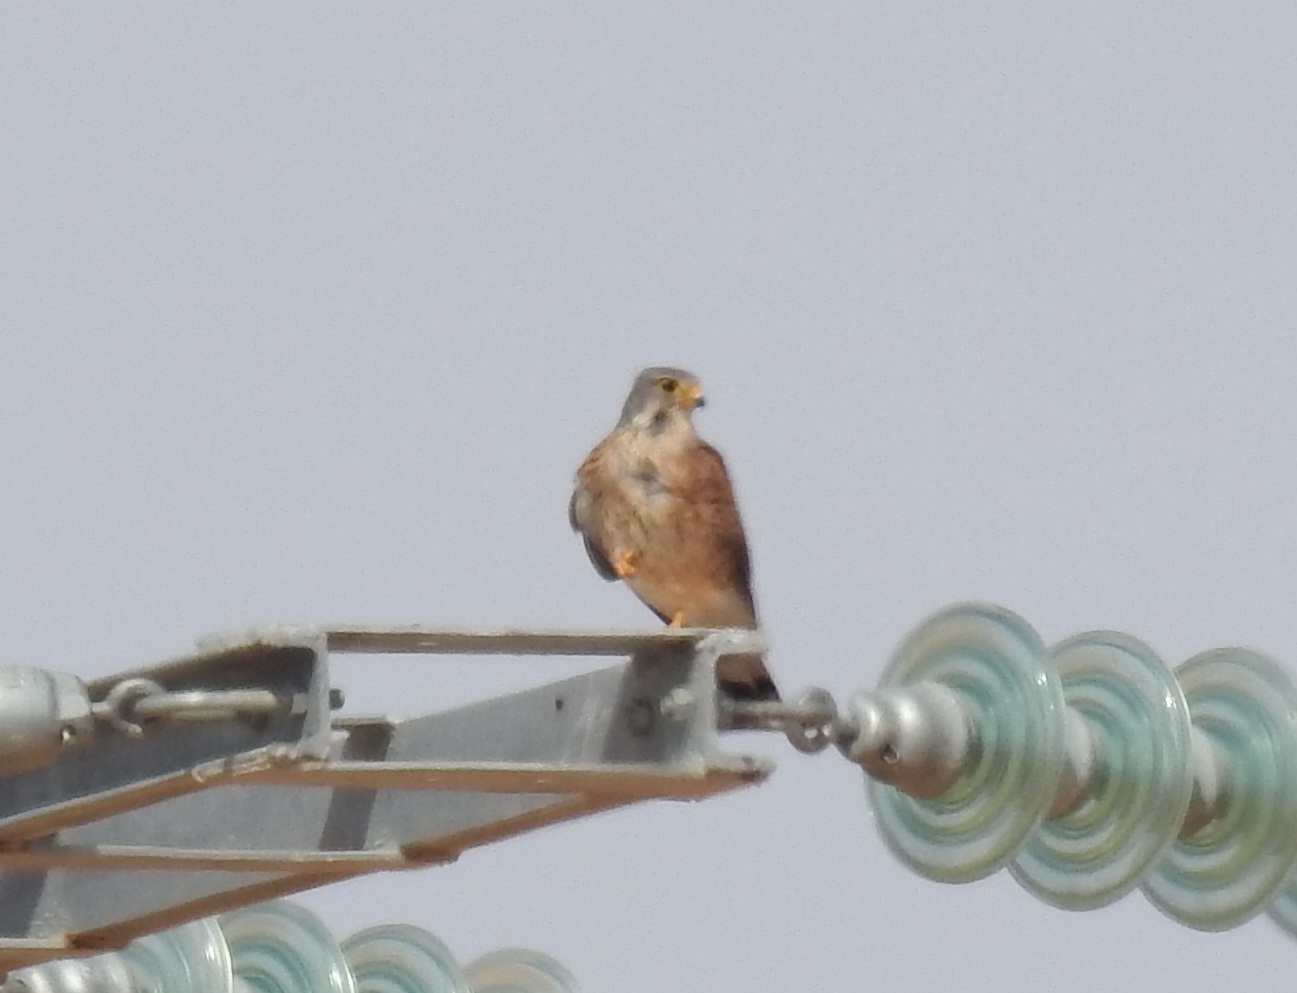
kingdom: Animalia
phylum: Chordata
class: Aves
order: Falconiformes
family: Falconidae
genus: Falco
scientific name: Falco naumanni
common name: Lesser kestrel
